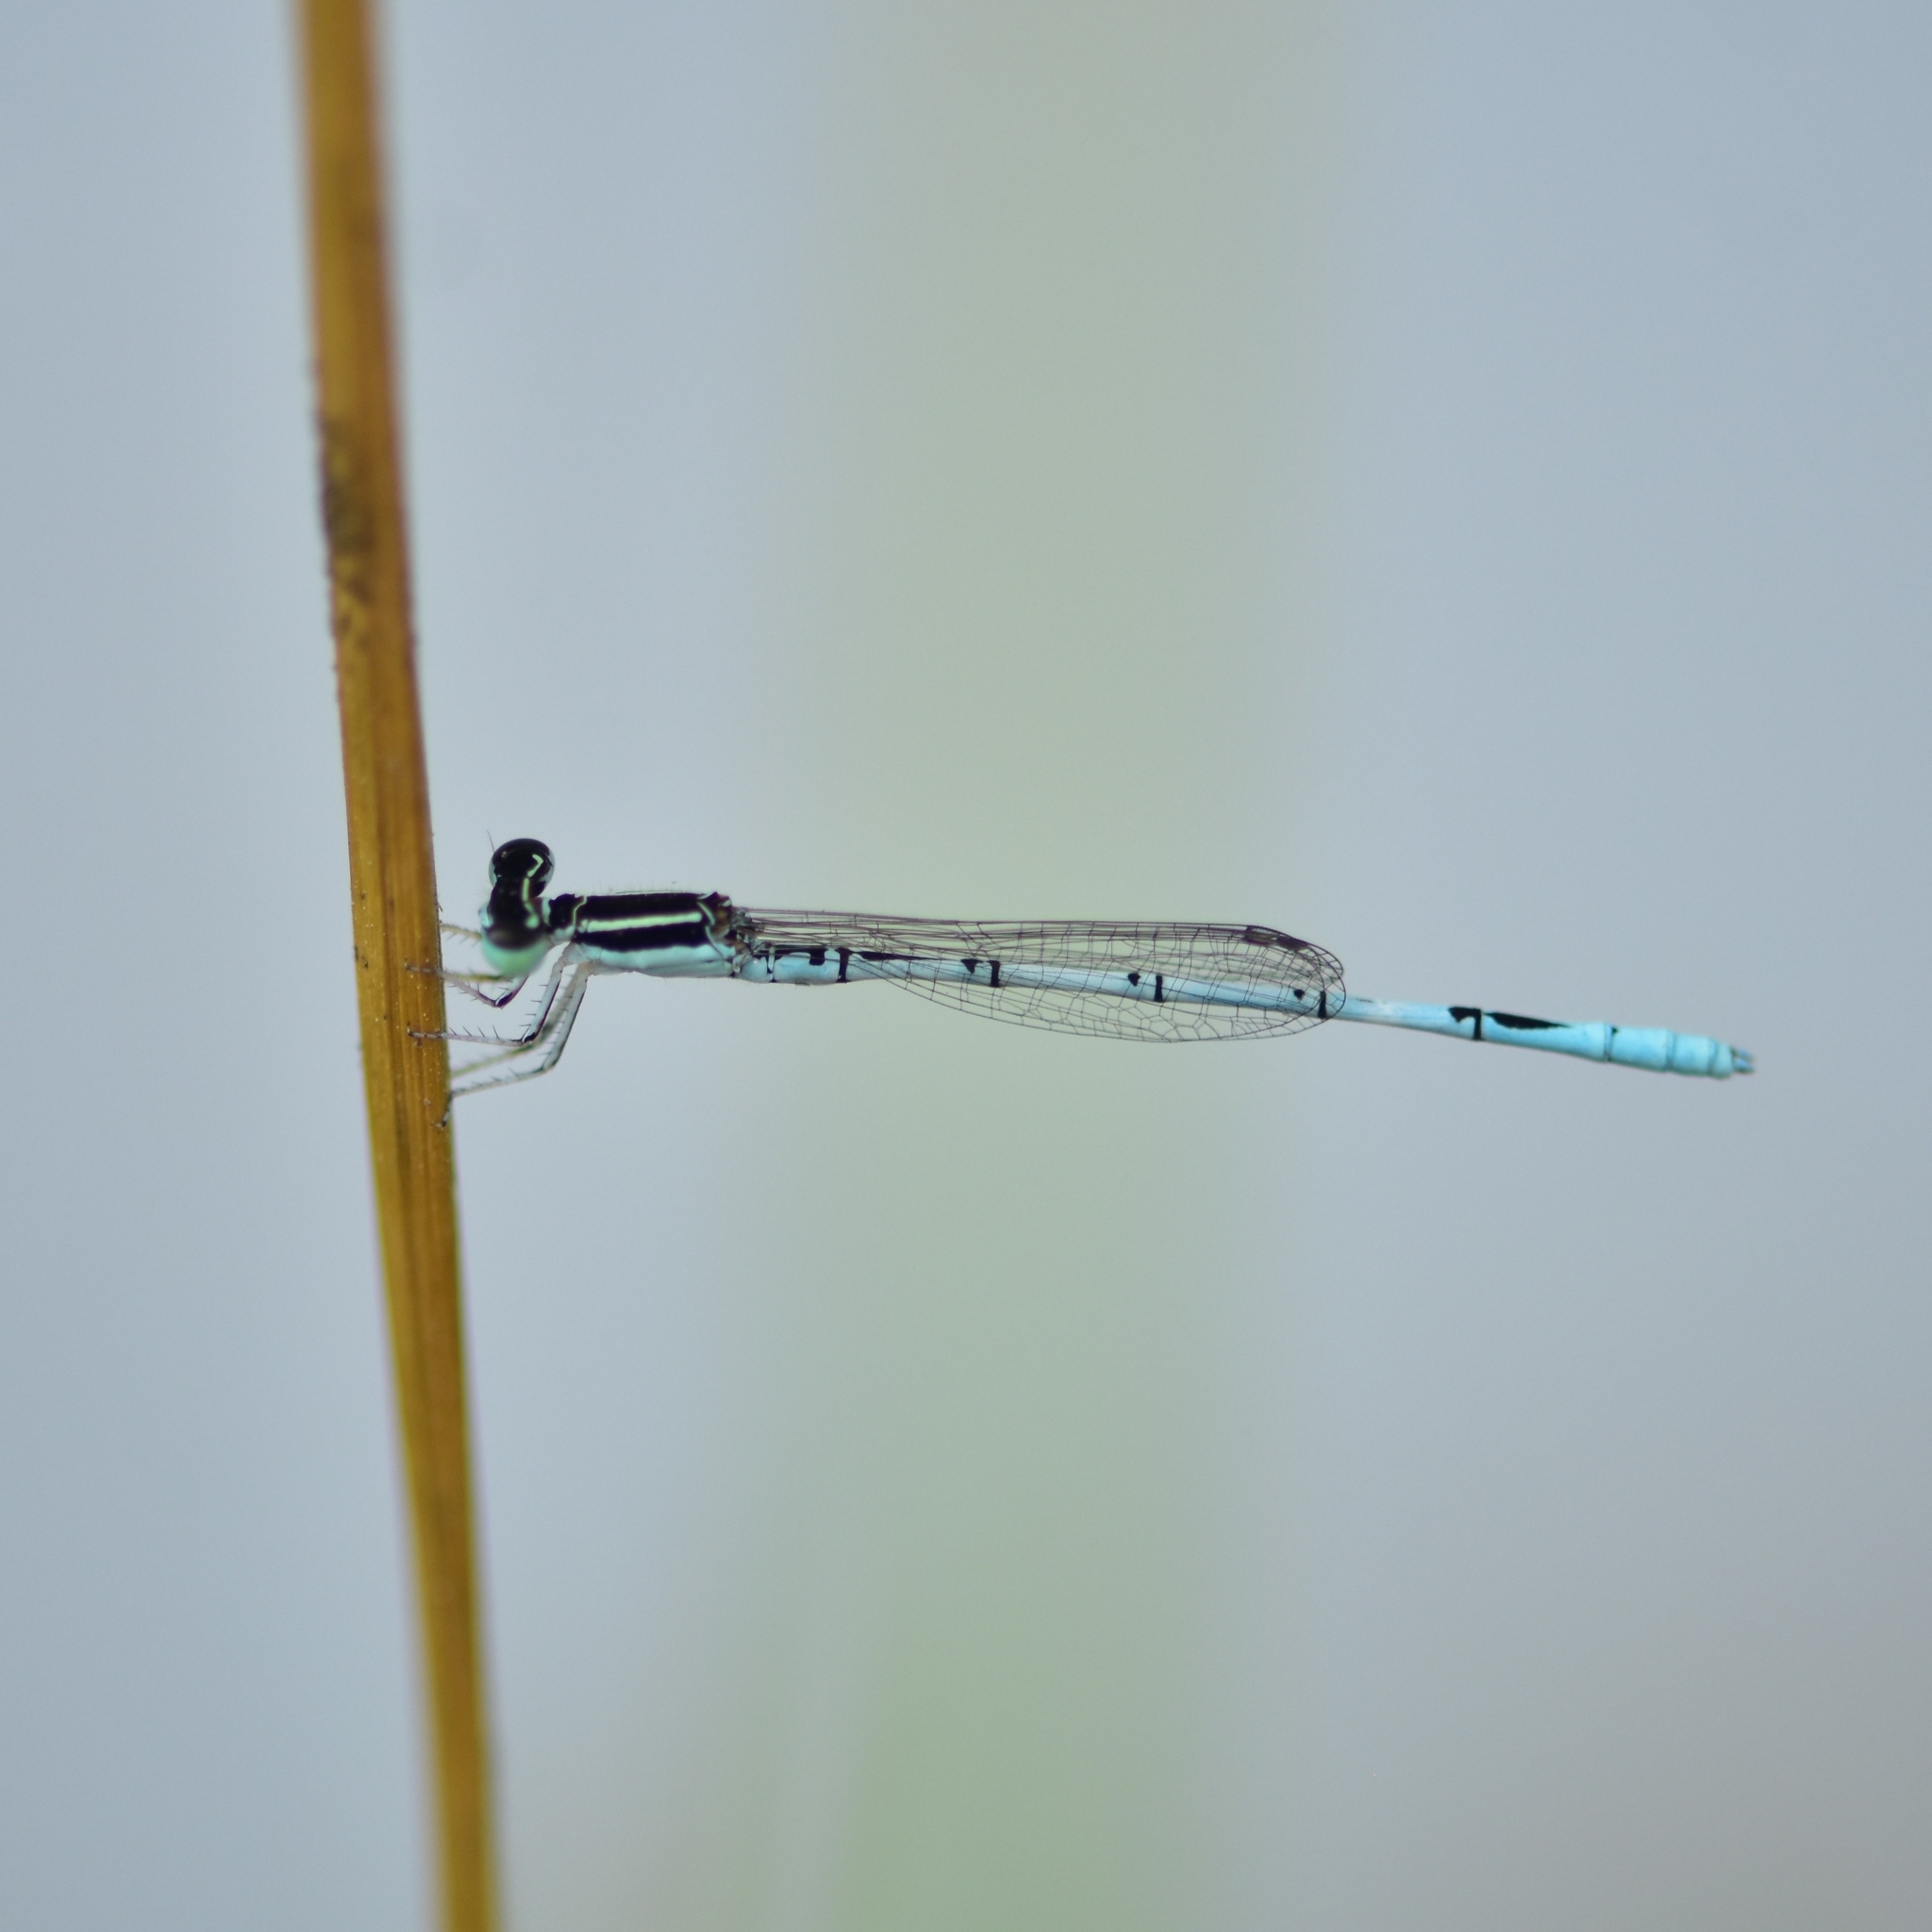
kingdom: Animalia
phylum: Arthropoda
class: Insecta
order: Odonata
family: Coenagrionidae
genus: Agriocnemis
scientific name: Agriocnemis pieris
